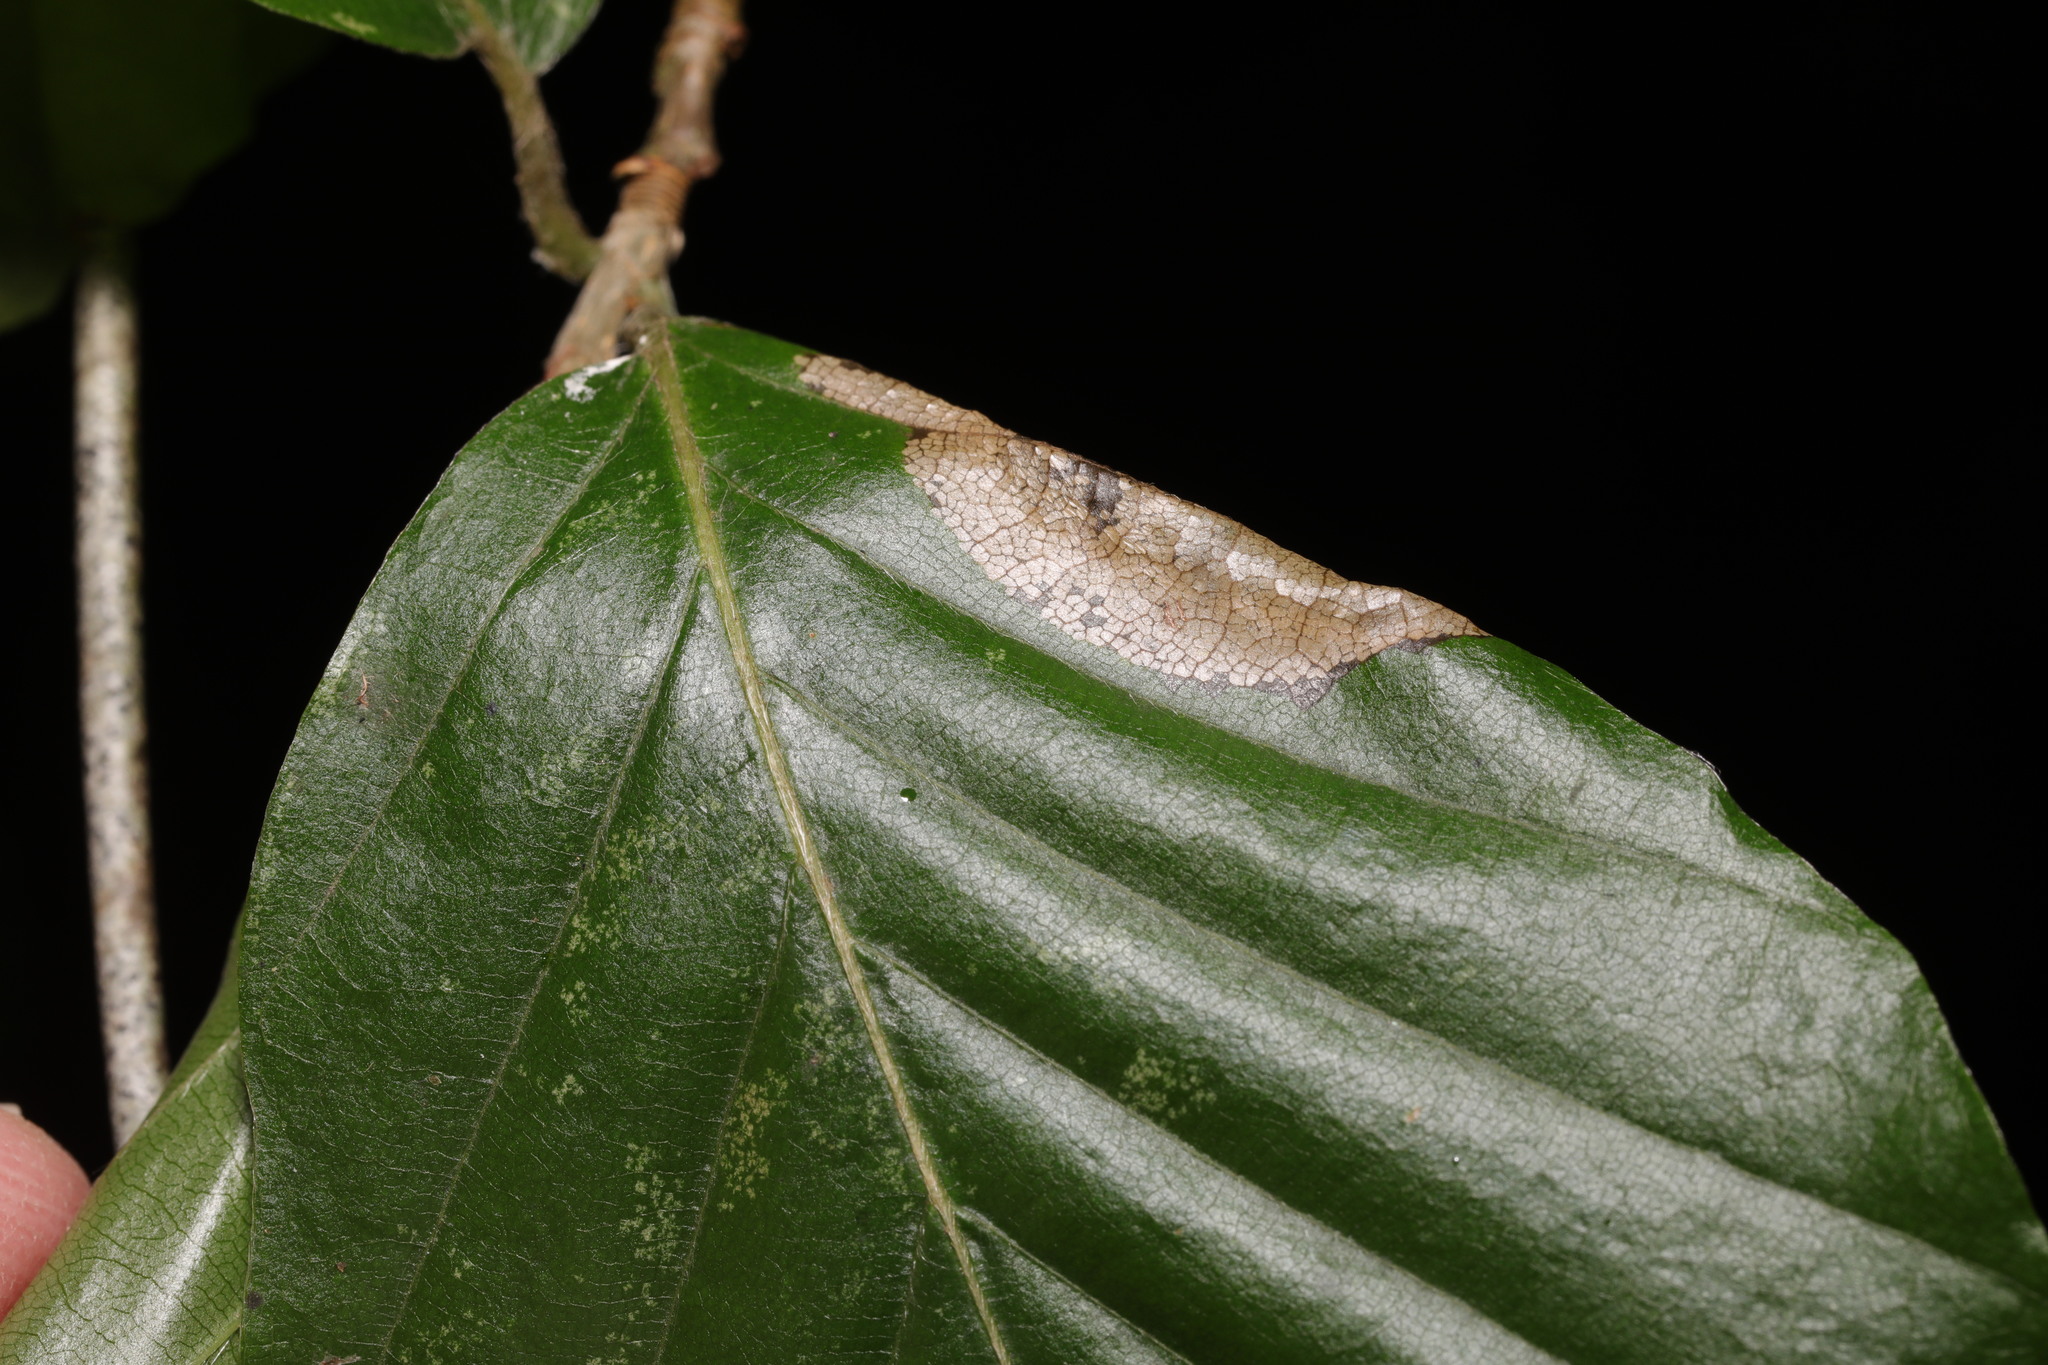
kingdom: Animalia
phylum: Arthropoda
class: Insecta
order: Lepidoptera
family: Gracillariidae
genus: Phyllonorycter
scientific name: Phyllonorycter maestingella
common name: Beech midget
